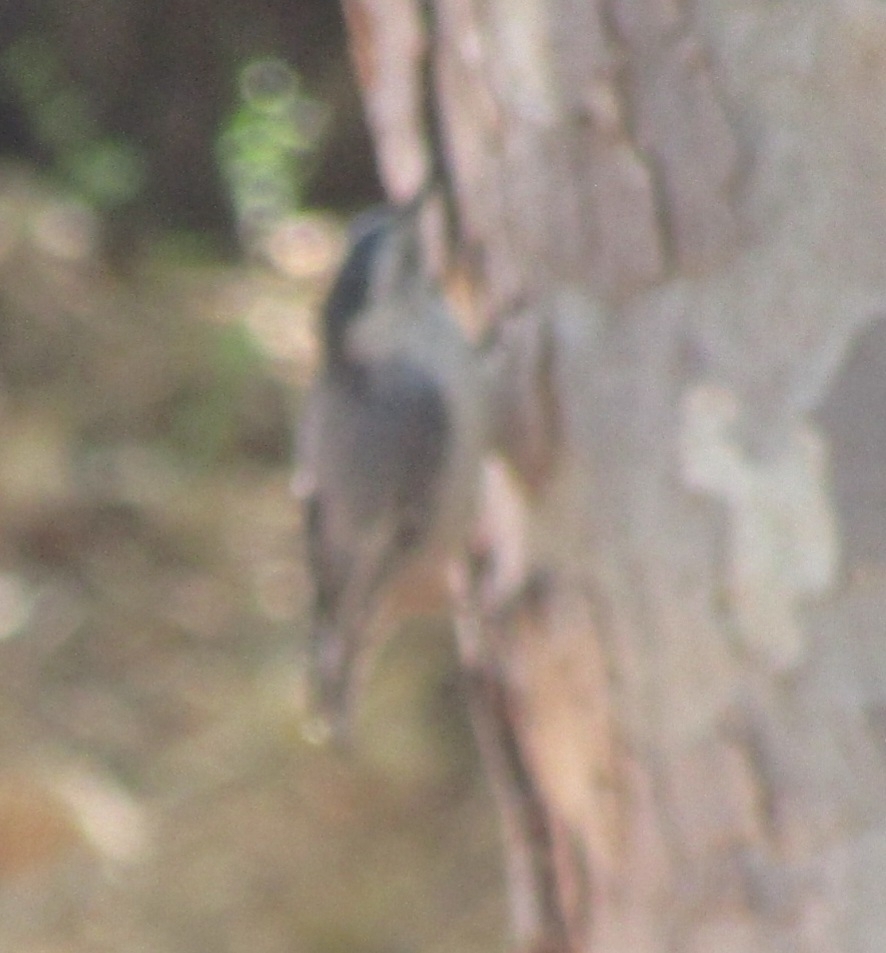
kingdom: Animalia
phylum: Chordata
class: Aves
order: Passeriformes
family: Sittidae
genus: Sitta
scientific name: Sitta carolinensis
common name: White-breasted nuthatch
